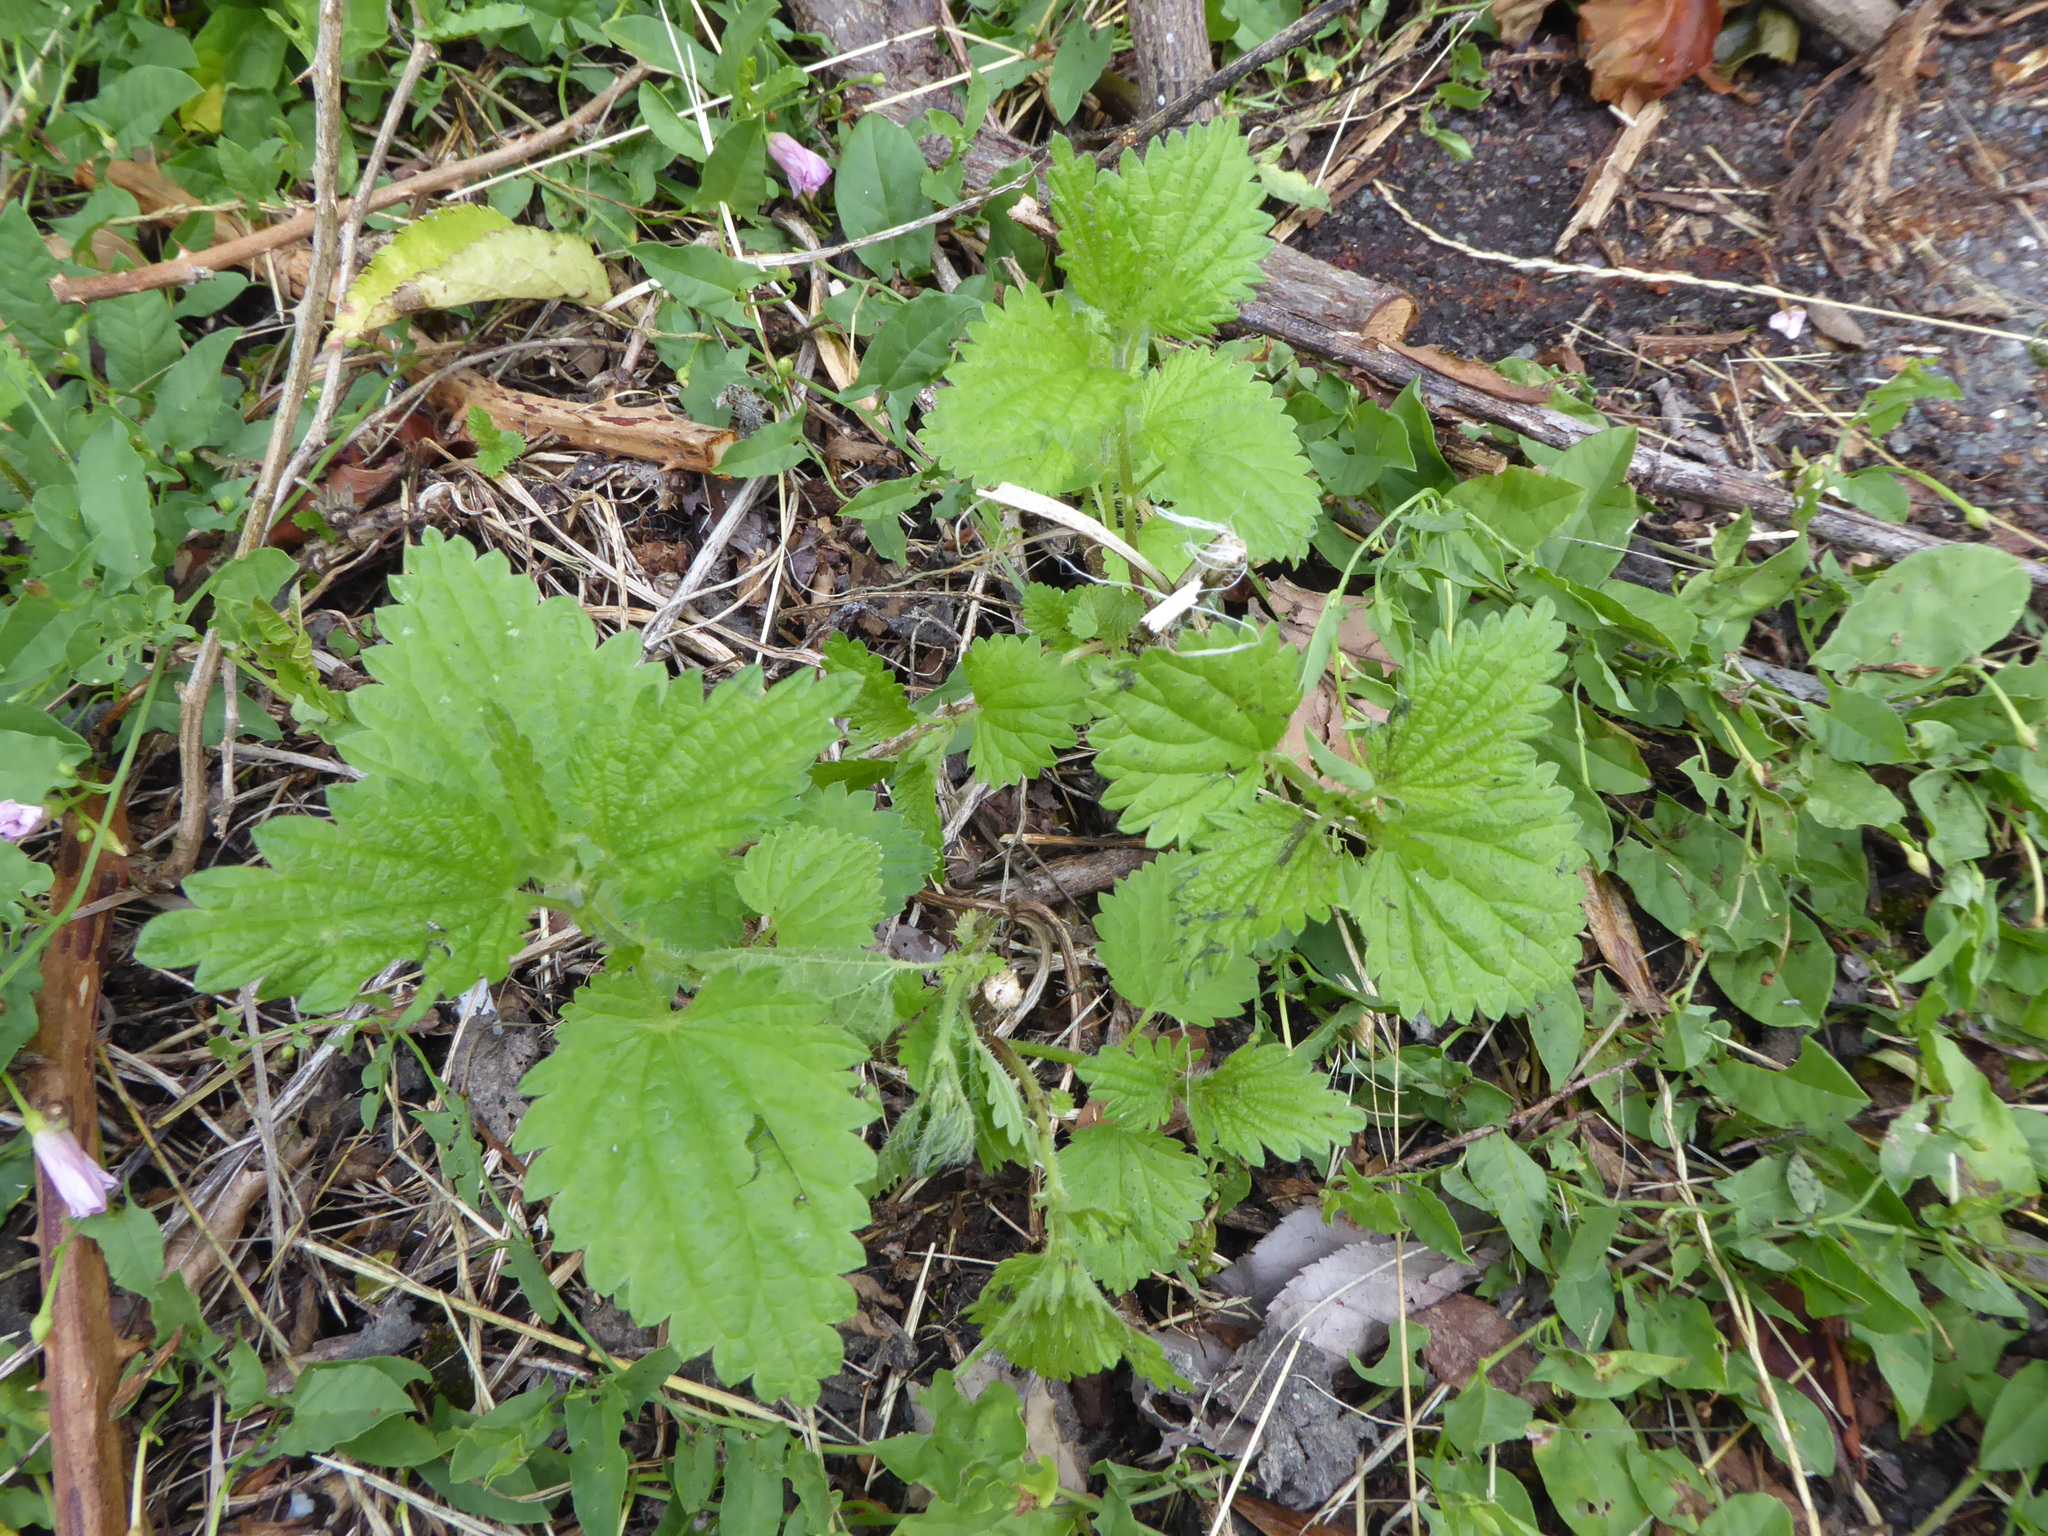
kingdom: Plantae
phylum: Tracheophyta
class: Magnoliopsida
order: Rosales
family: Urticaceae
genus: Urtica
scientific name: Urtica dioica
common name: Common nettle
